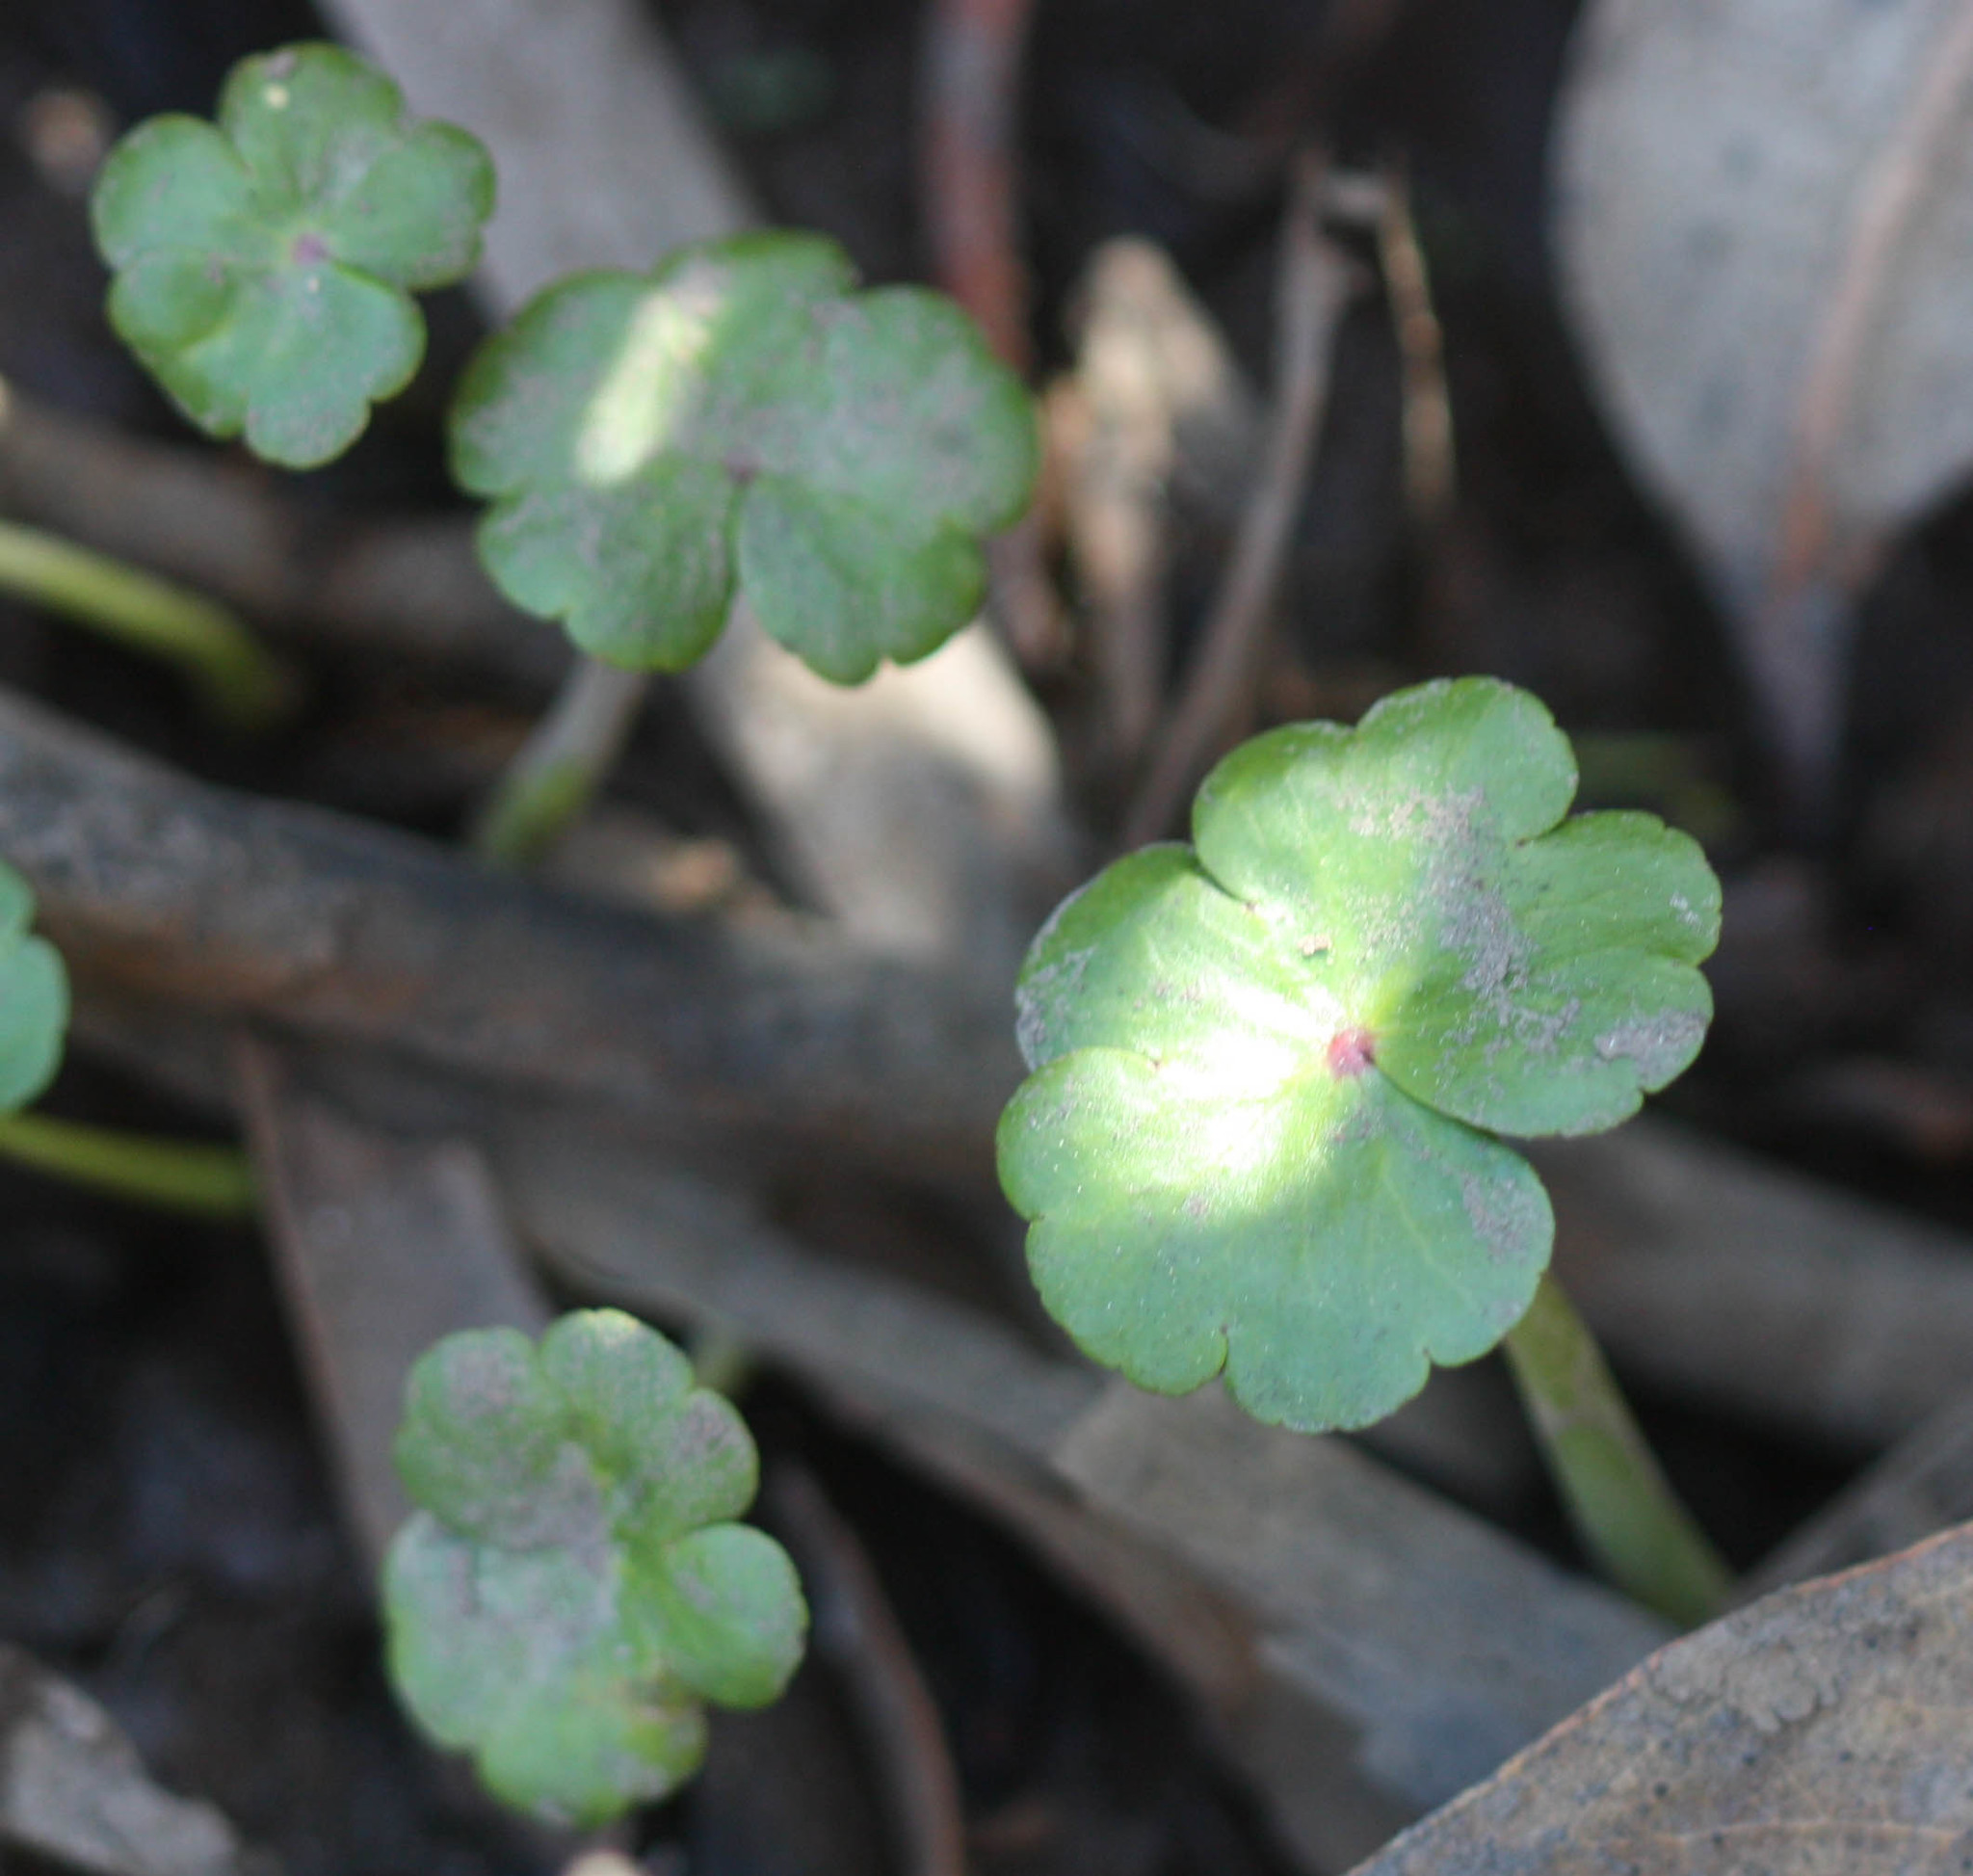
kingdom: Plantae
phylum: Tracheophyta
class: Magnoliopsida
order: Apiales
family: Araliaceae
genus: Hydrocotyle
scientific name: Hydrocotyle ranunculoides
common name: Floating pennywort
